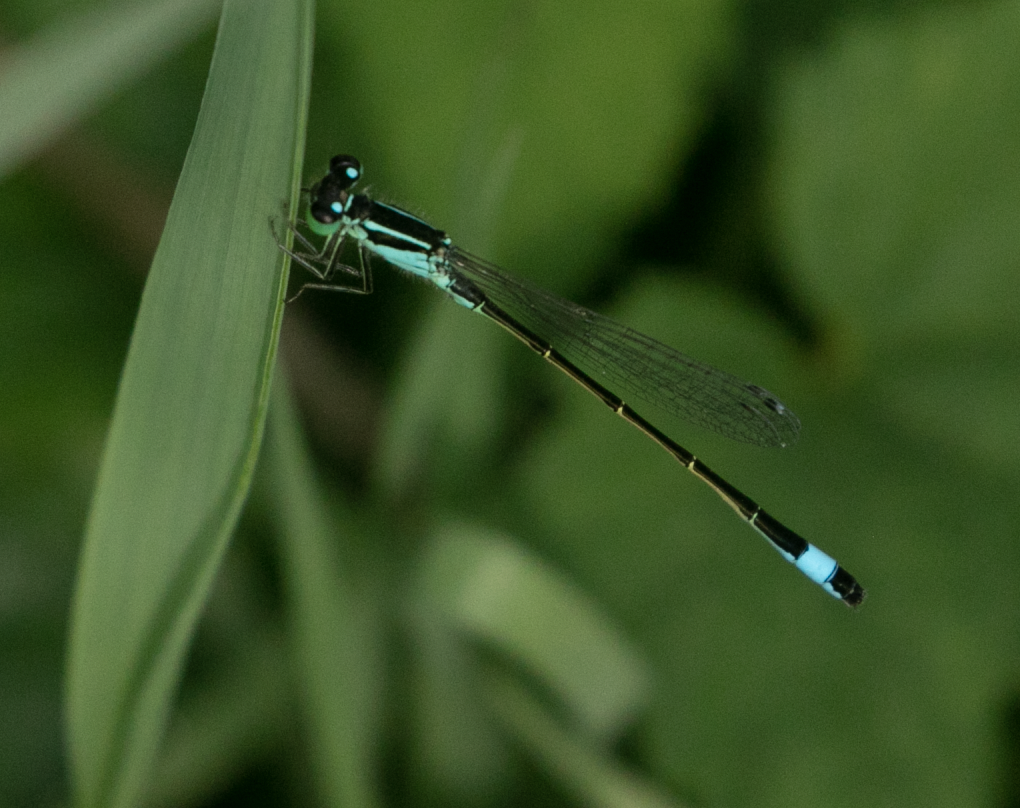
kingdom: Animalia
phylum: Arthropoda
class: Insecta
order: Odonata
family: Coenagrionidae
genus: Ischnura
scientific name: Ischnura elegans
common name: Blue-tailed damselfly
